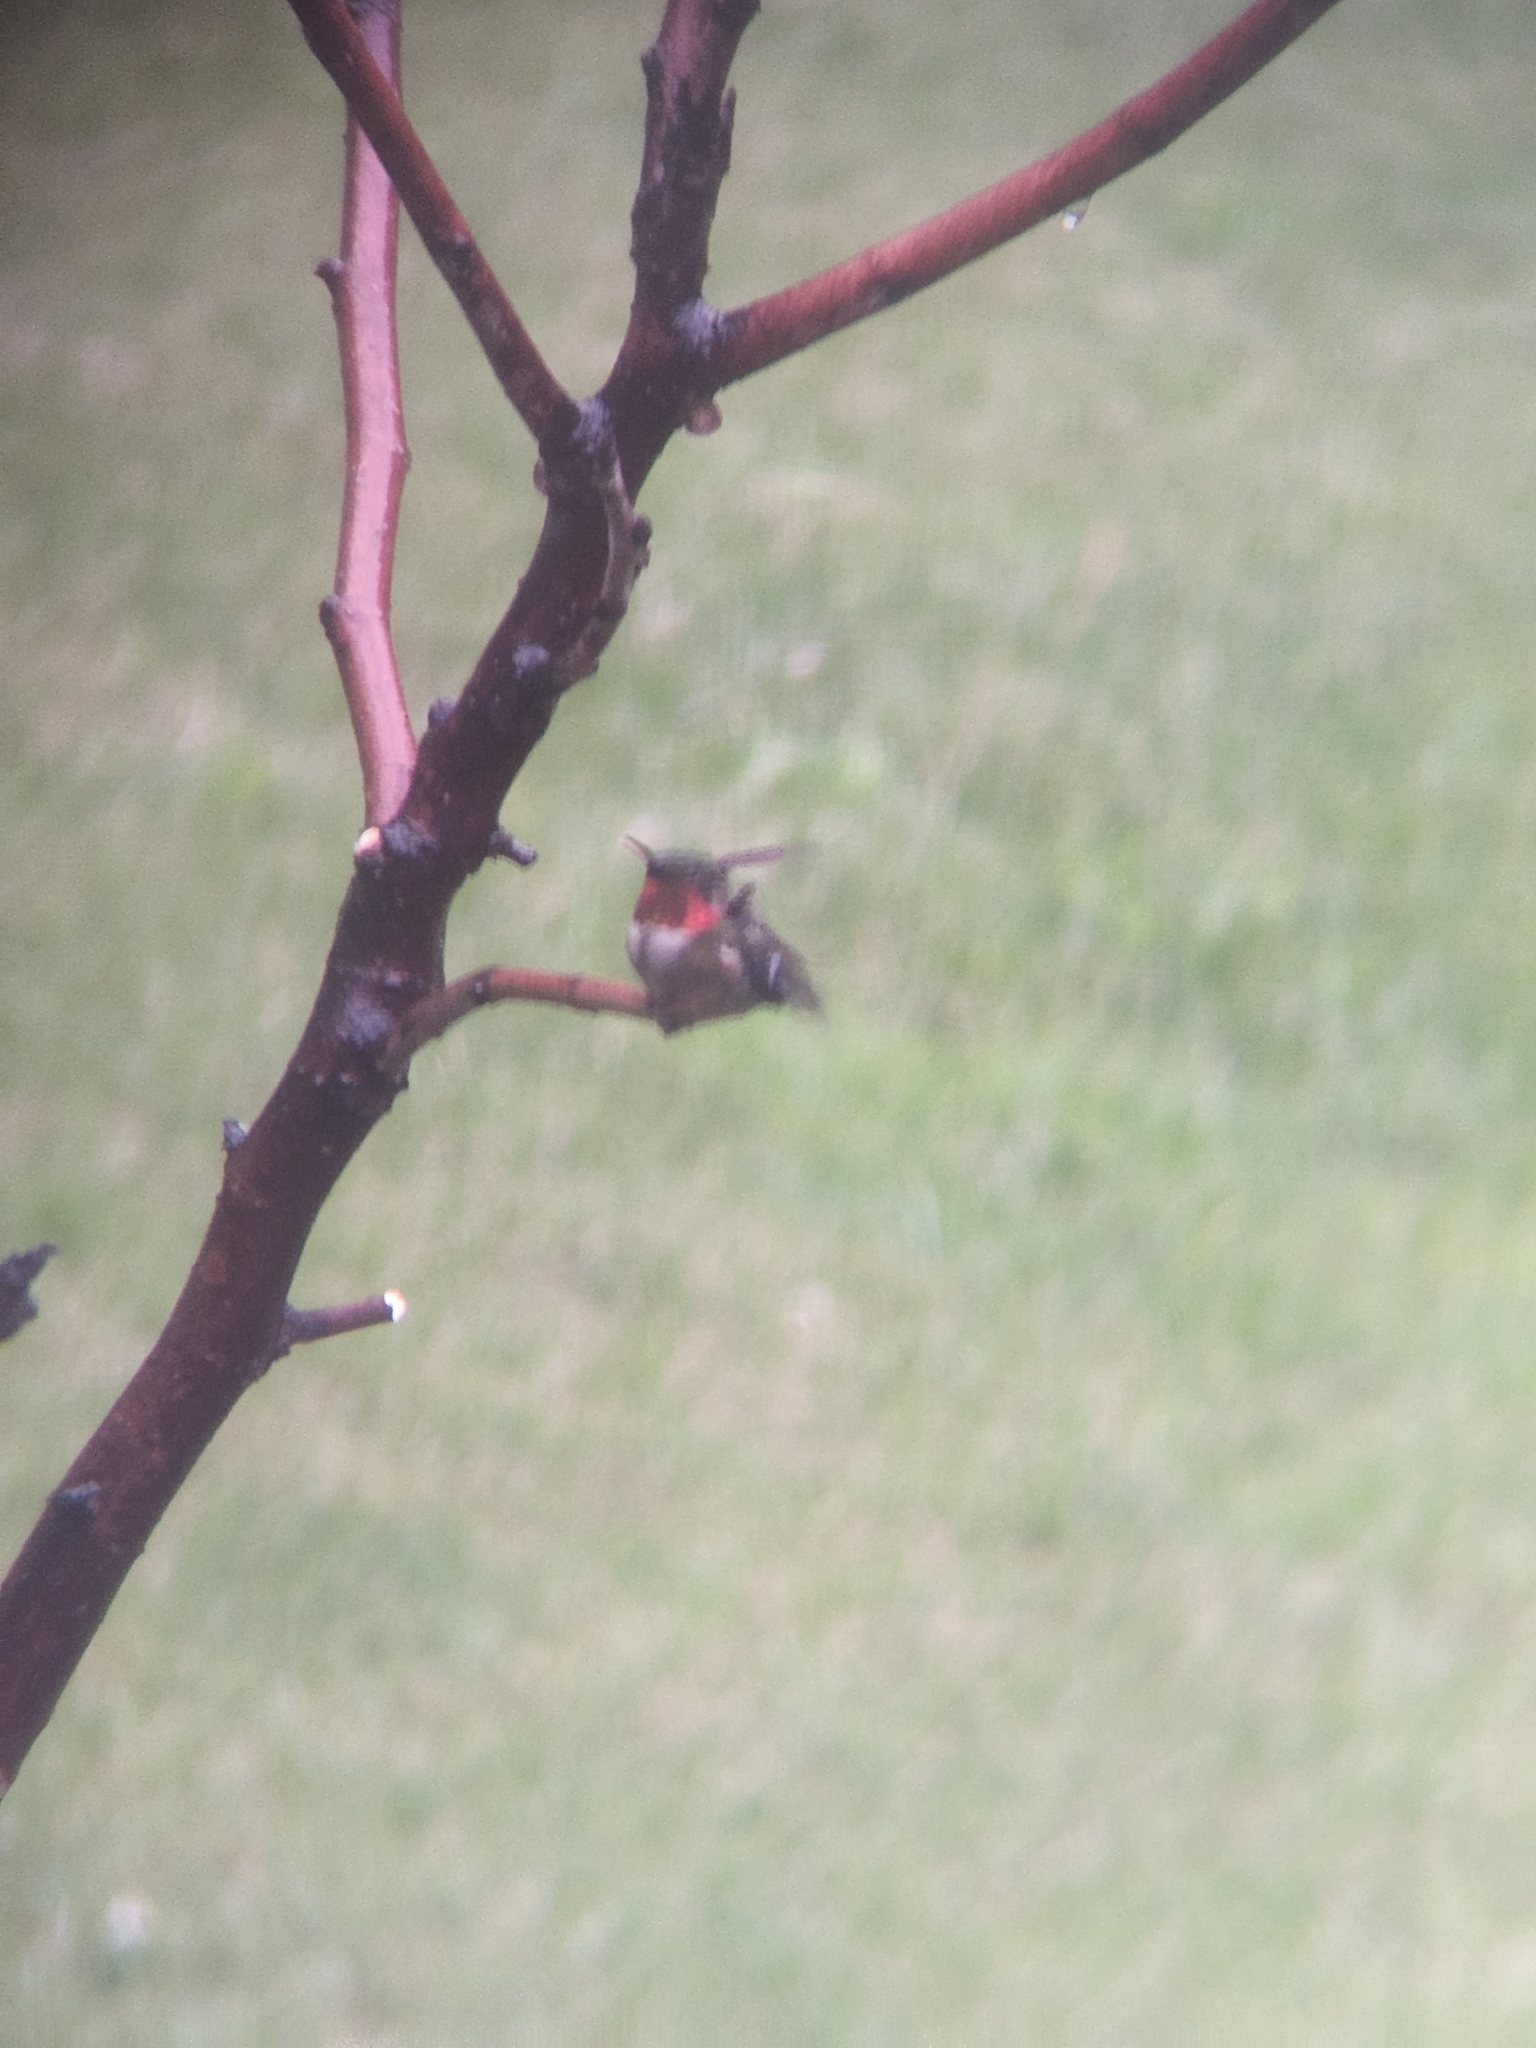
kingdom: Animalia
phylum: Chordata
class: Aves
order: Apodiformes
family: Trochilidae
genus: Archilochus
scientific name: Archilochus colubris
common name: Ruby-throated hummingbird
